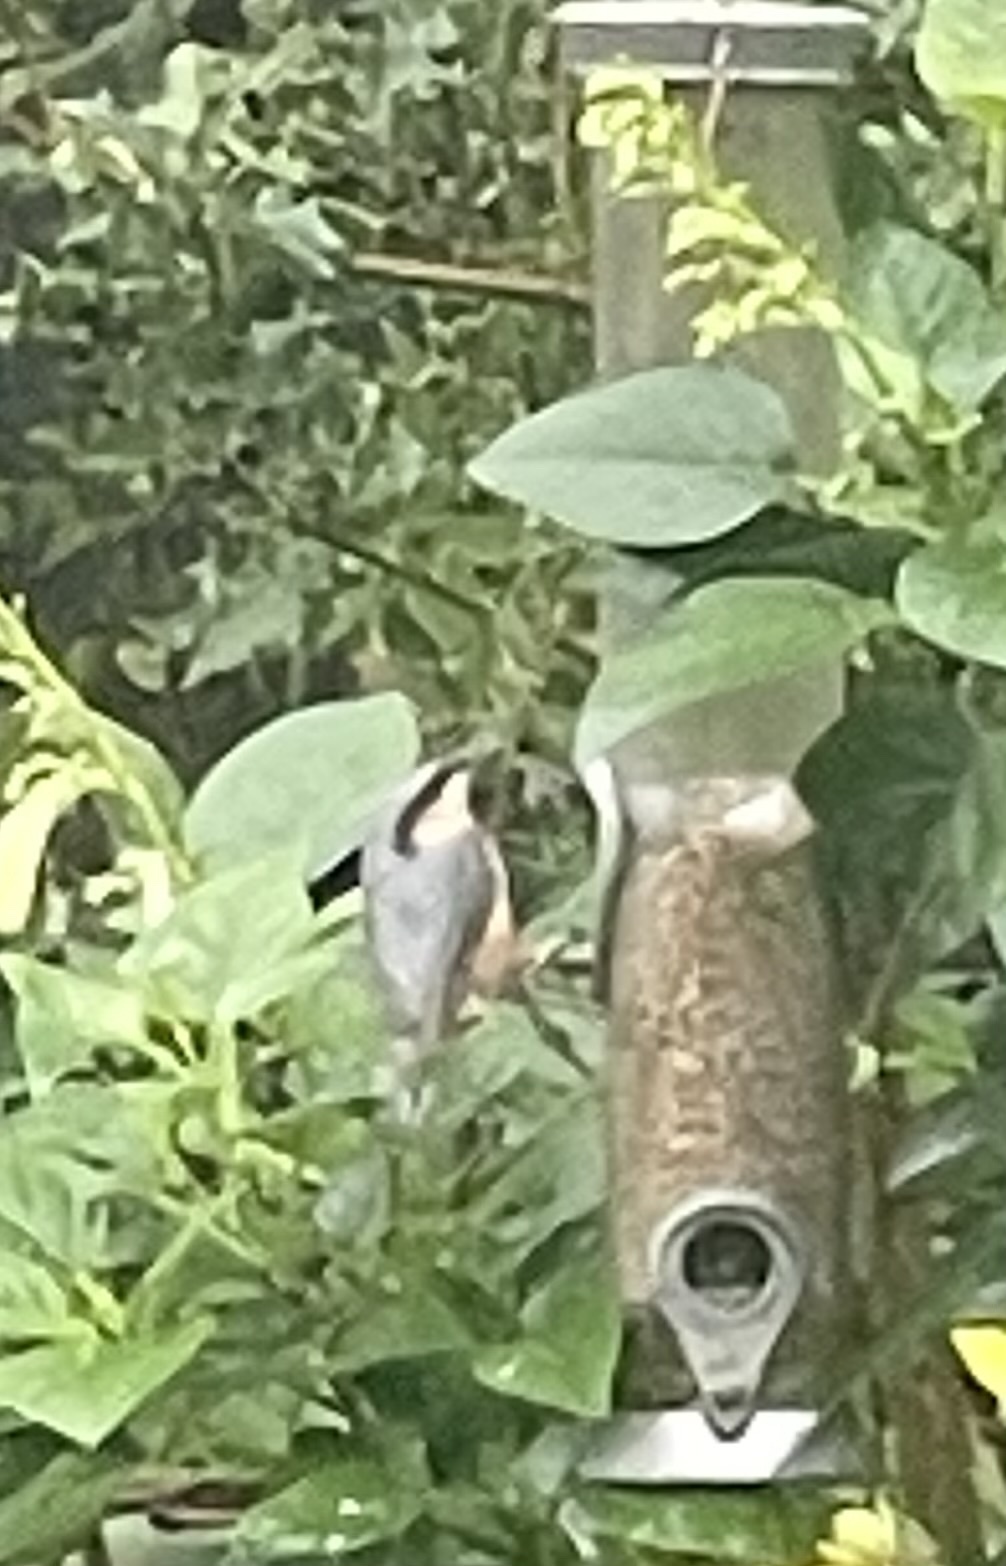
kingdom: Animalia
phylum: Chordata
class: Aves
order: Passeriformes
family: Sittidae
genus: Sitta
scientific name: Sitta europaea
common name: Eurasian nuthatch
